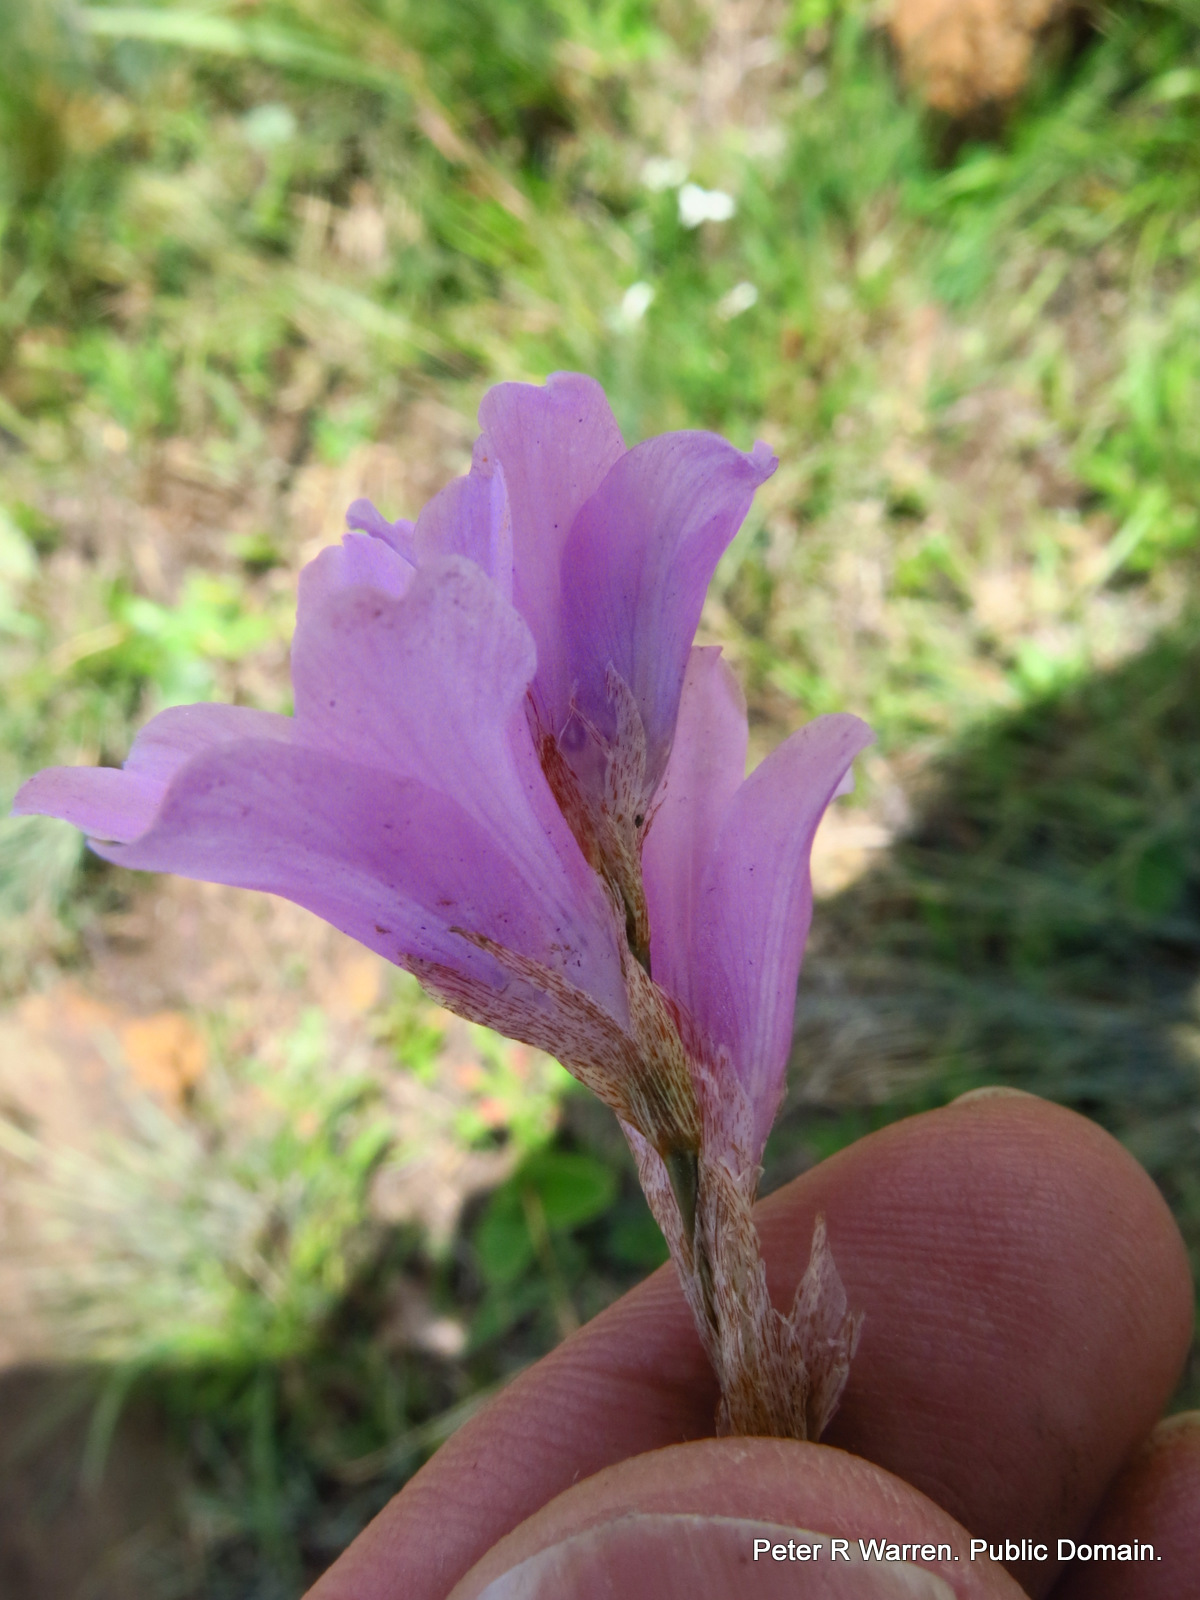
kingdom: Plantae
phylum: Tracheophyta
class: Liliopsida
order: Asparagales
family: Iridaceae
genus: Gladiolus
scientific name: Gladiolus parvulus
